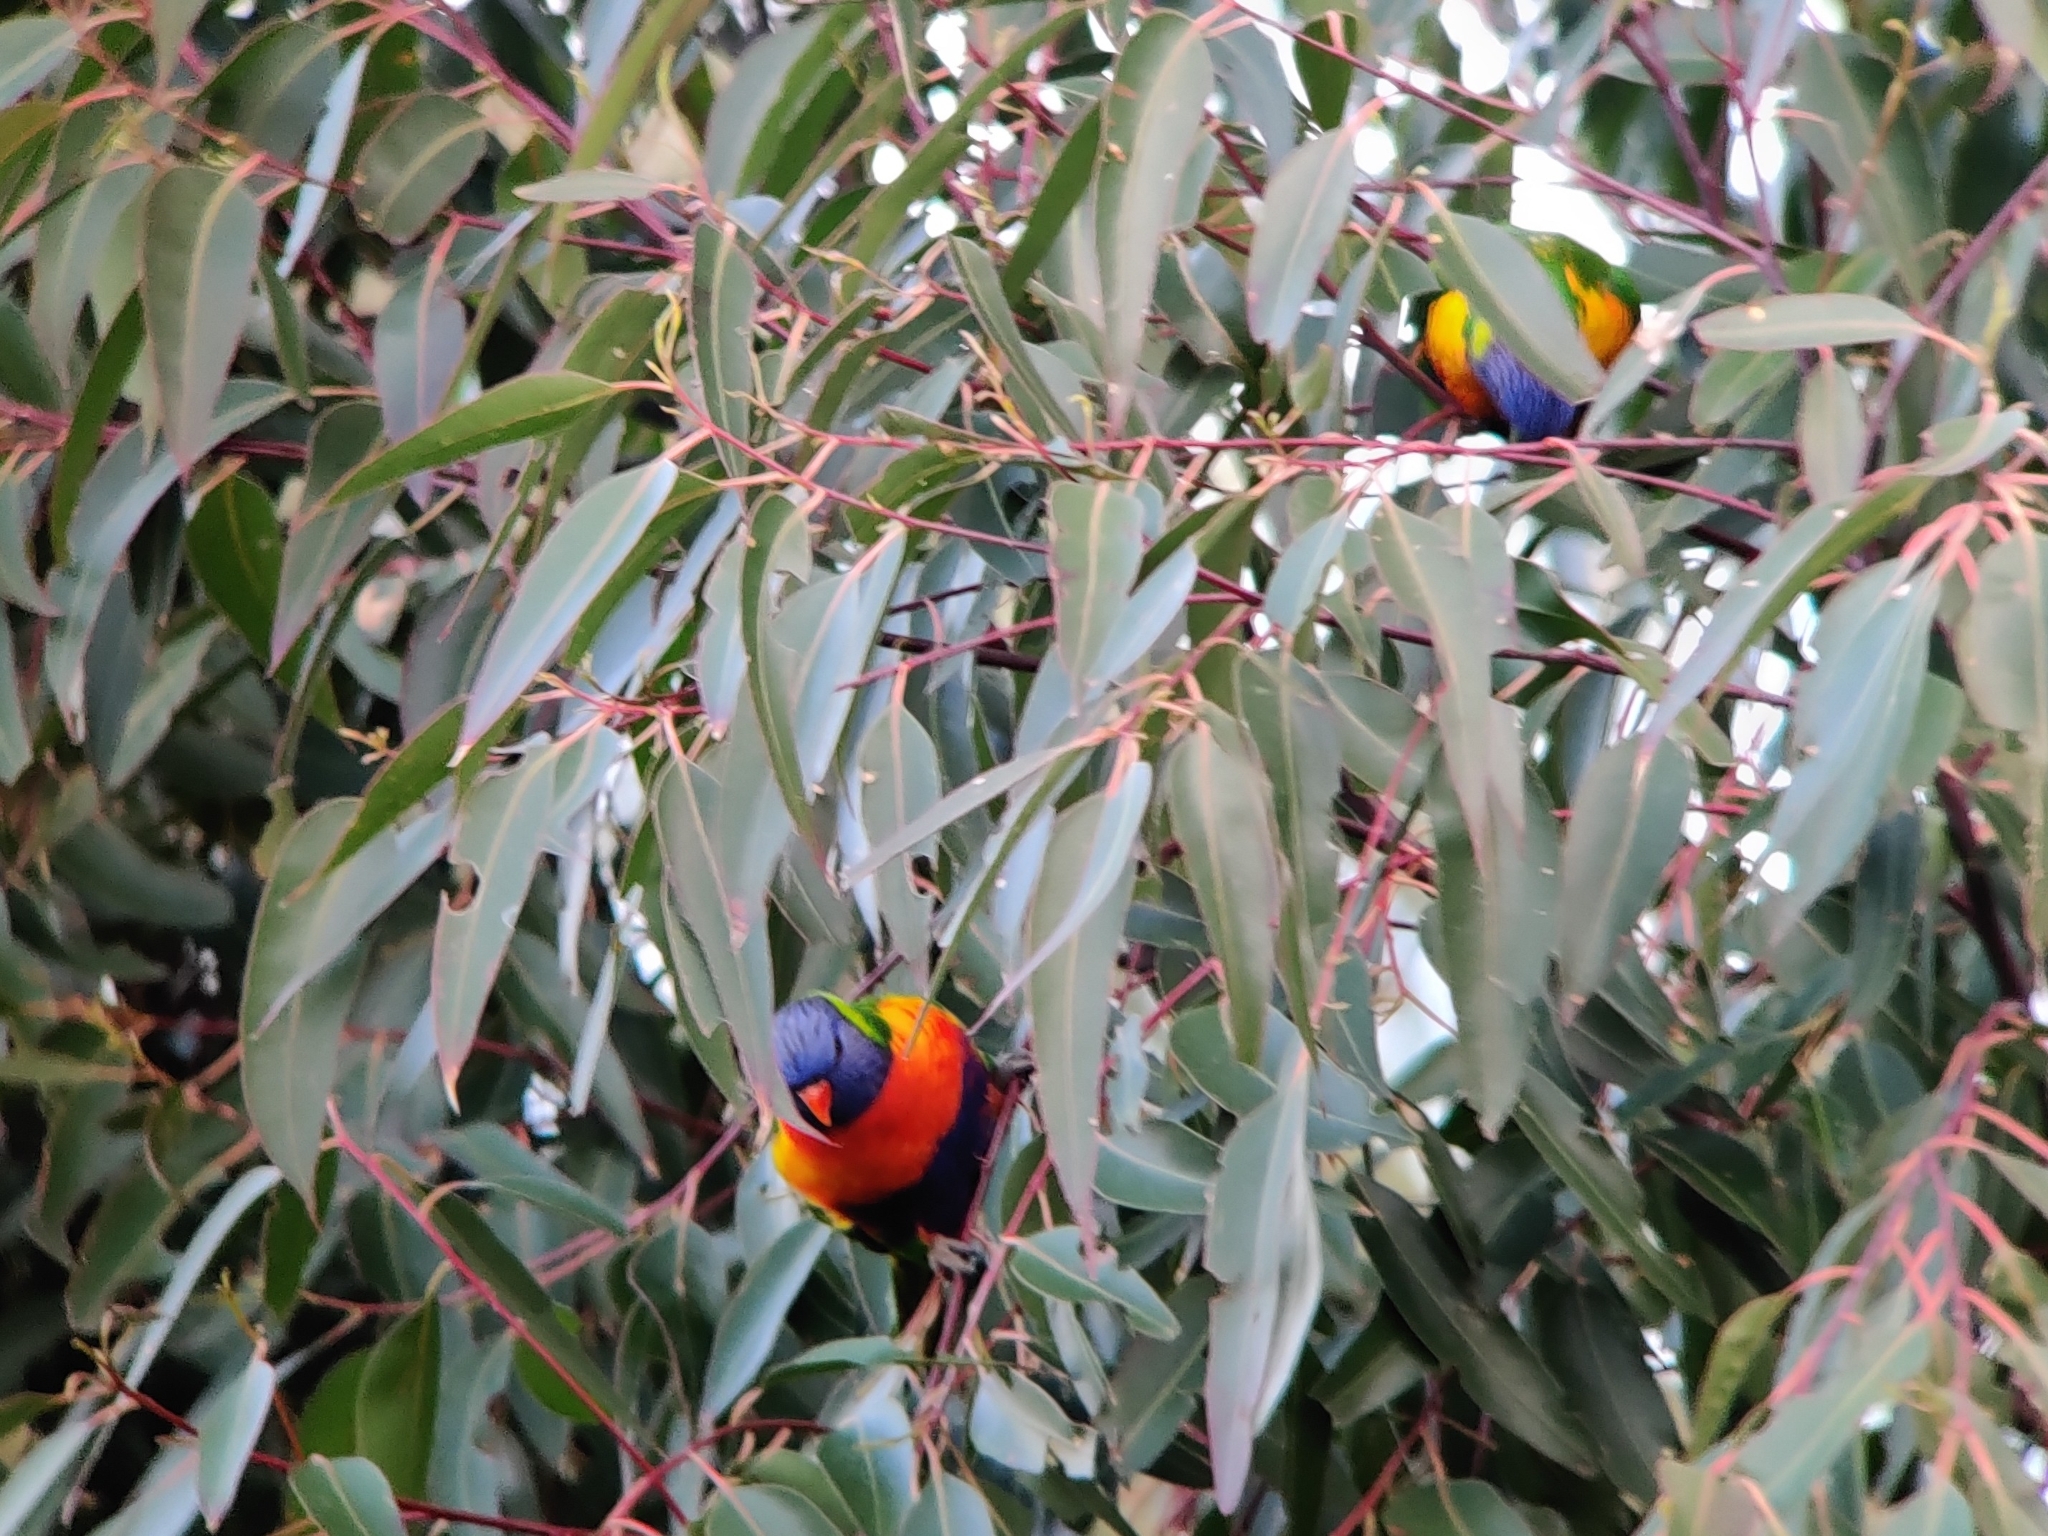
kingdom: Animalia
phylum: Chordata
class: Aves
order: Psittaciformes
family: Psittacidae
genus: Trichoglossus
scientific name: Trichoglossus haematodus
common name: Coconut lorikeet
